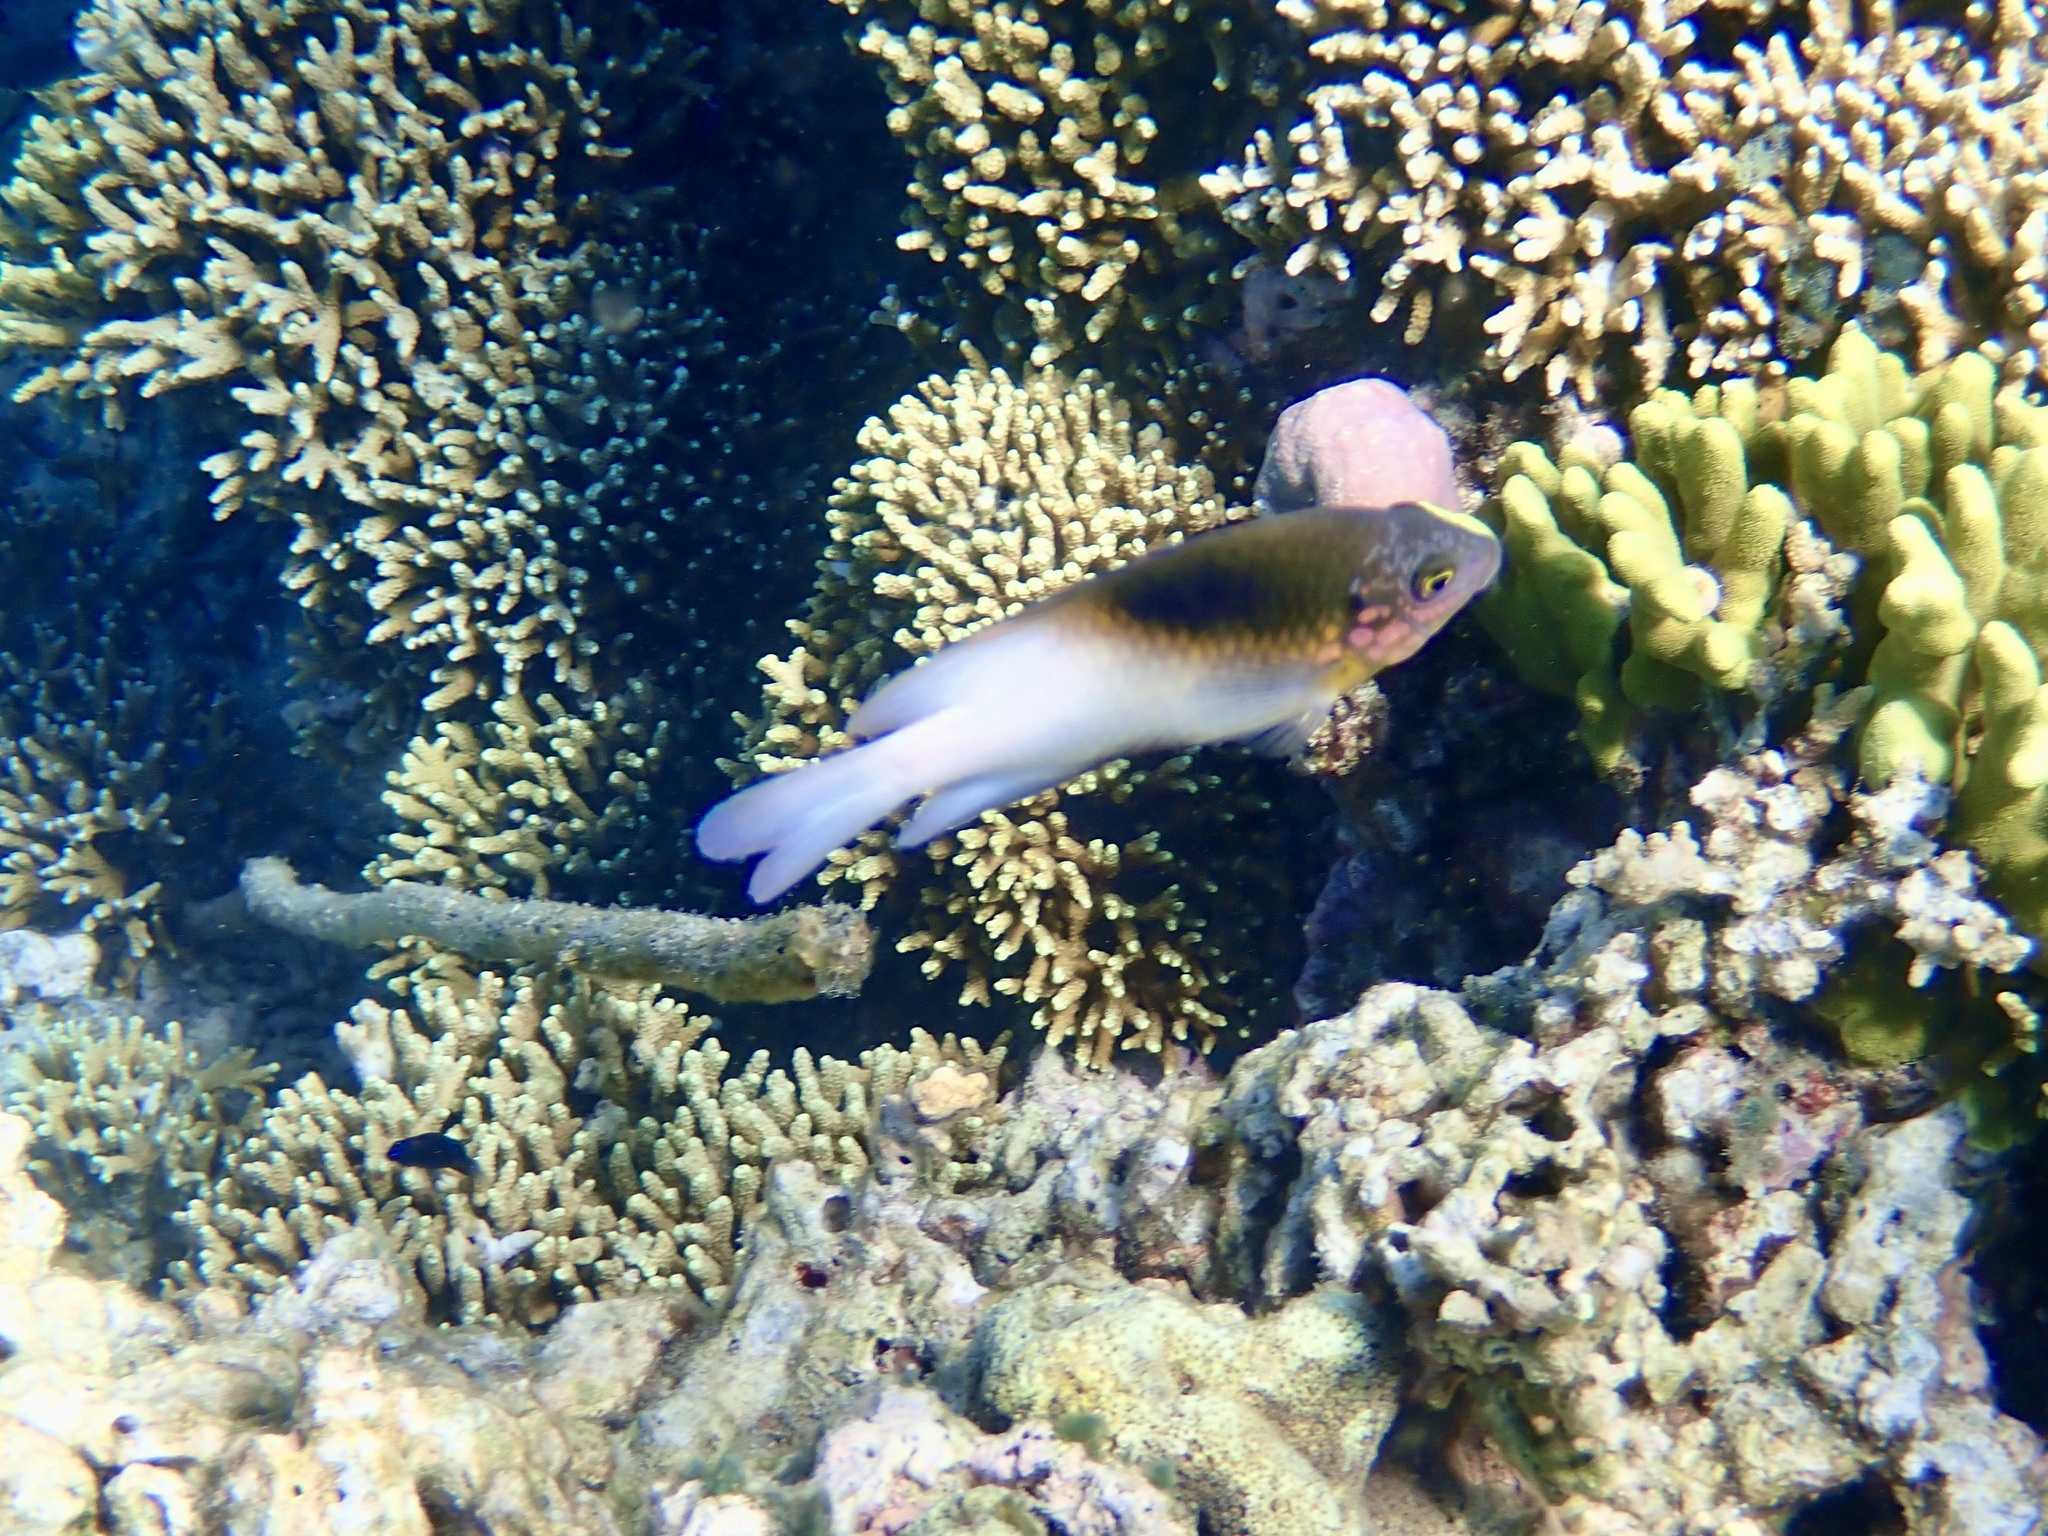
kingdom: Animalia
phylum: Chordata
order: Perciformes
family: Pomacentridae
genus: Dischistodus
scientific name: Dischistodus melanotus
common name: Black-vent damsel
